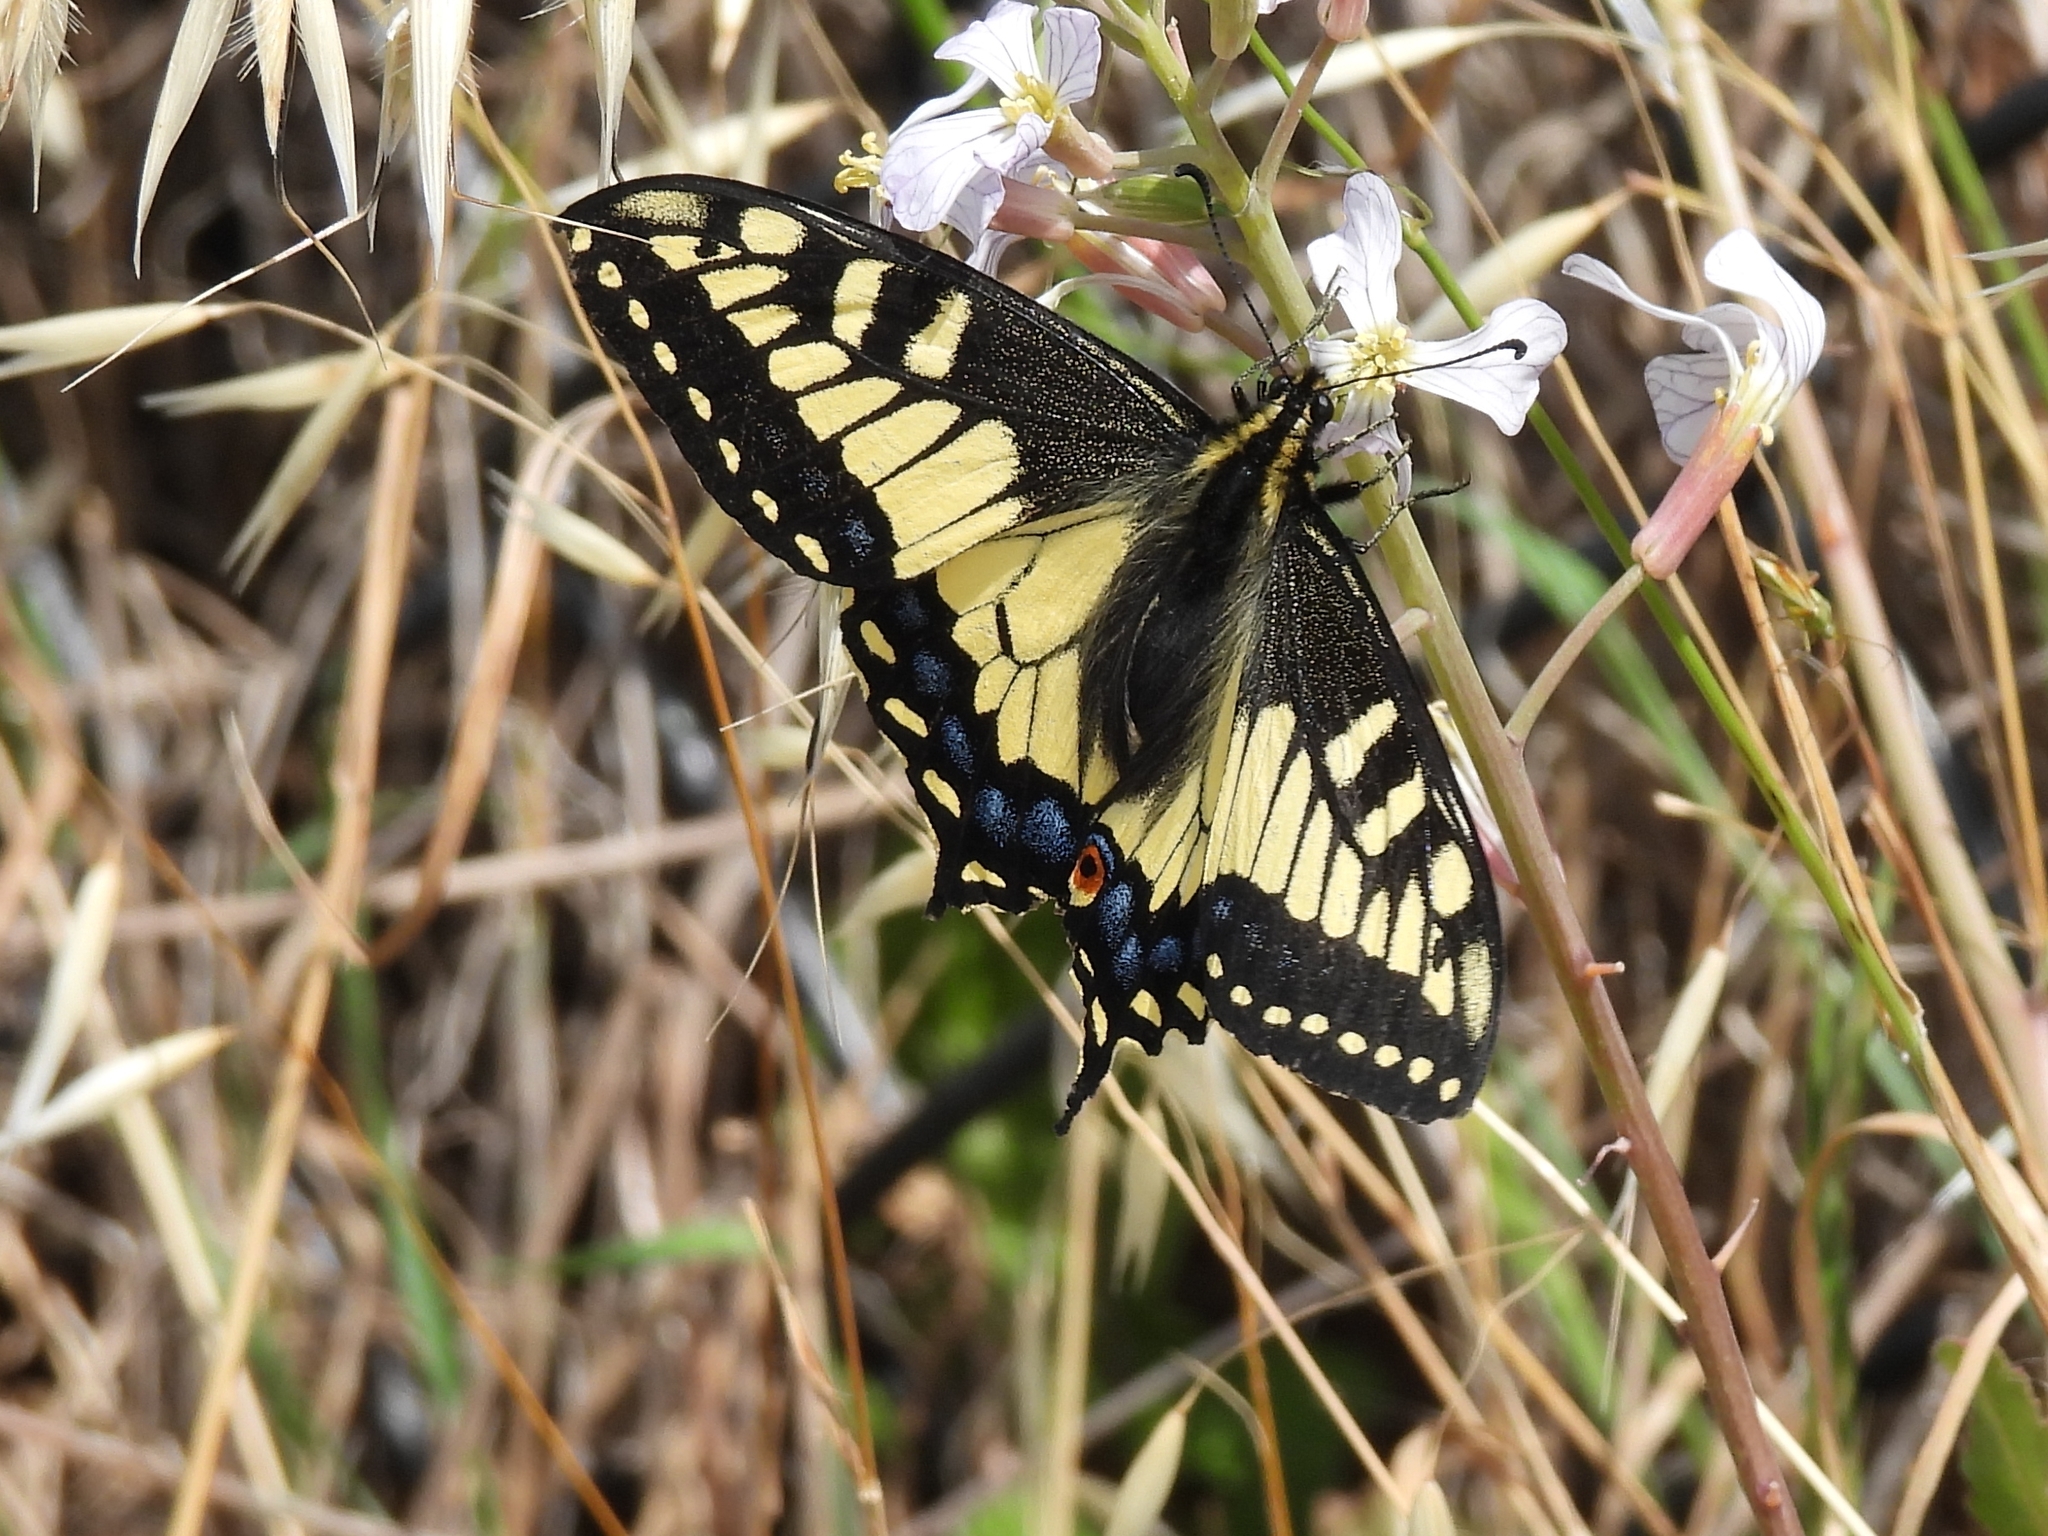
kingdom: Animalia
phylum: Arthropoda
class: Insecta
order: Lepidoptera
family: Papilionidae
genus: Papilio
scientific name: Papilio zelicaon
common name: Anise swallowtail
